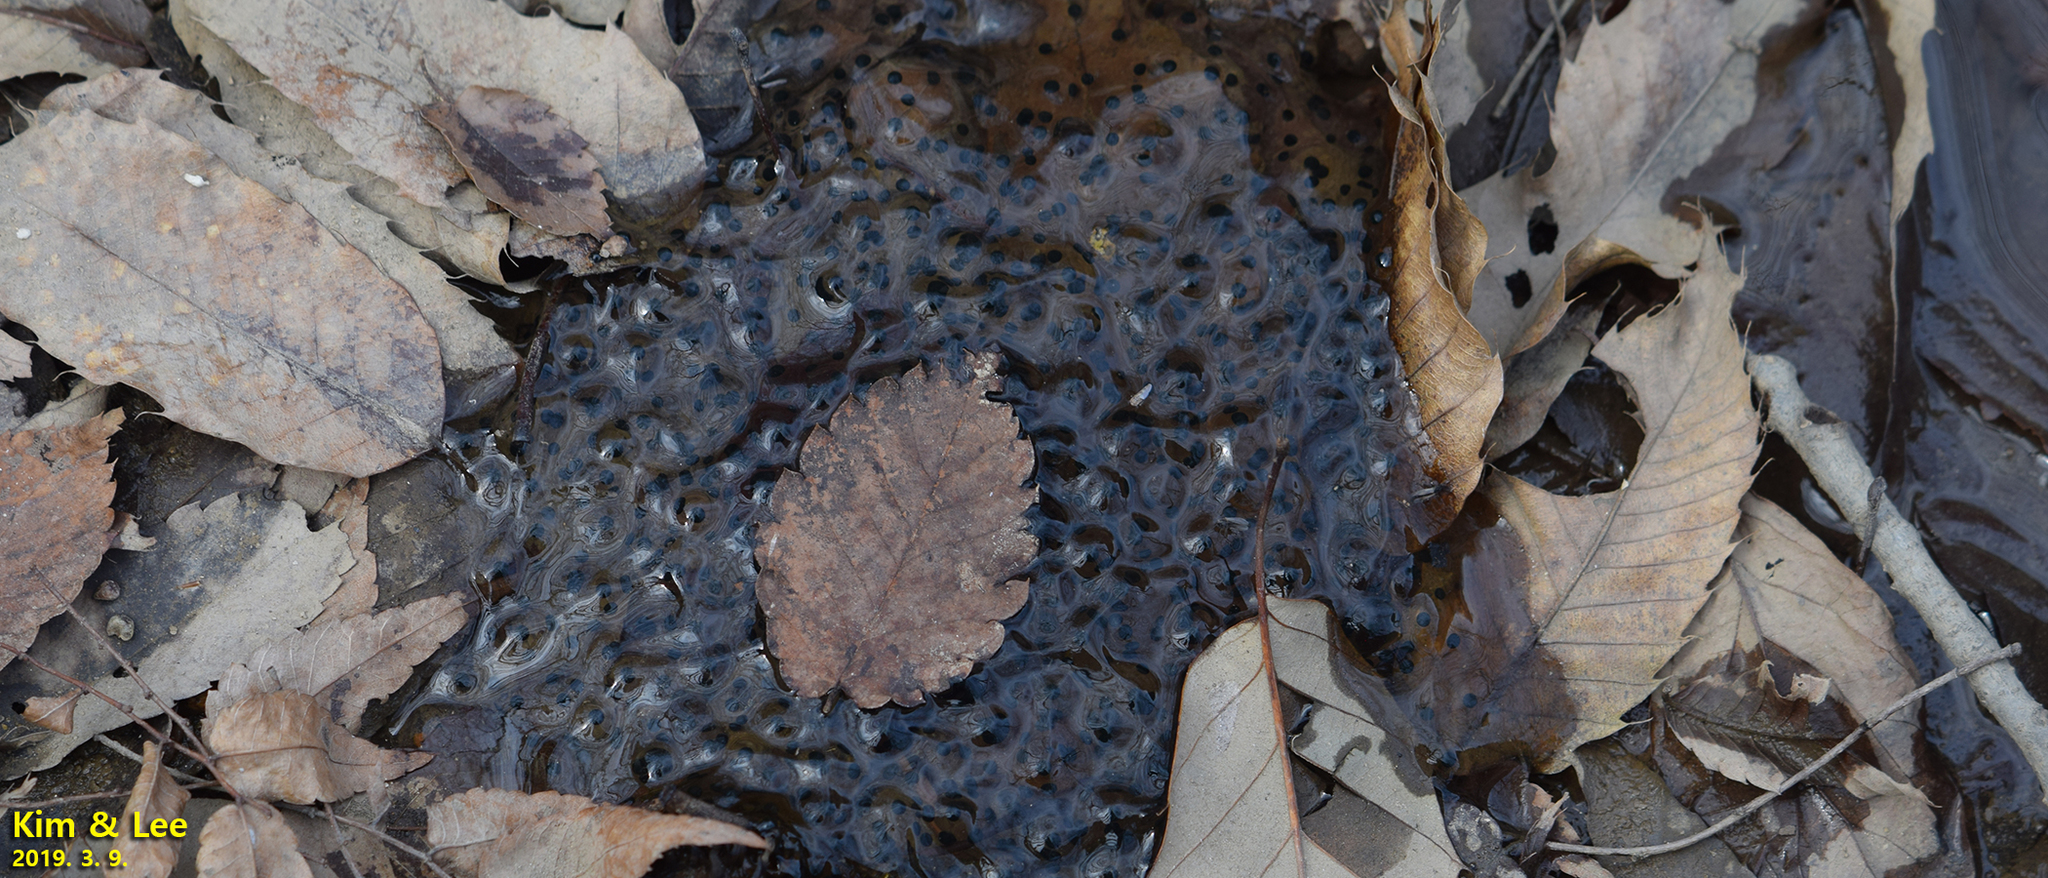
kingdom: Animalia
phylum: Chordata
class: Amphibia
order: Anura
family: Ranidae
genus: Rana
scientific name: Rana uenoi
